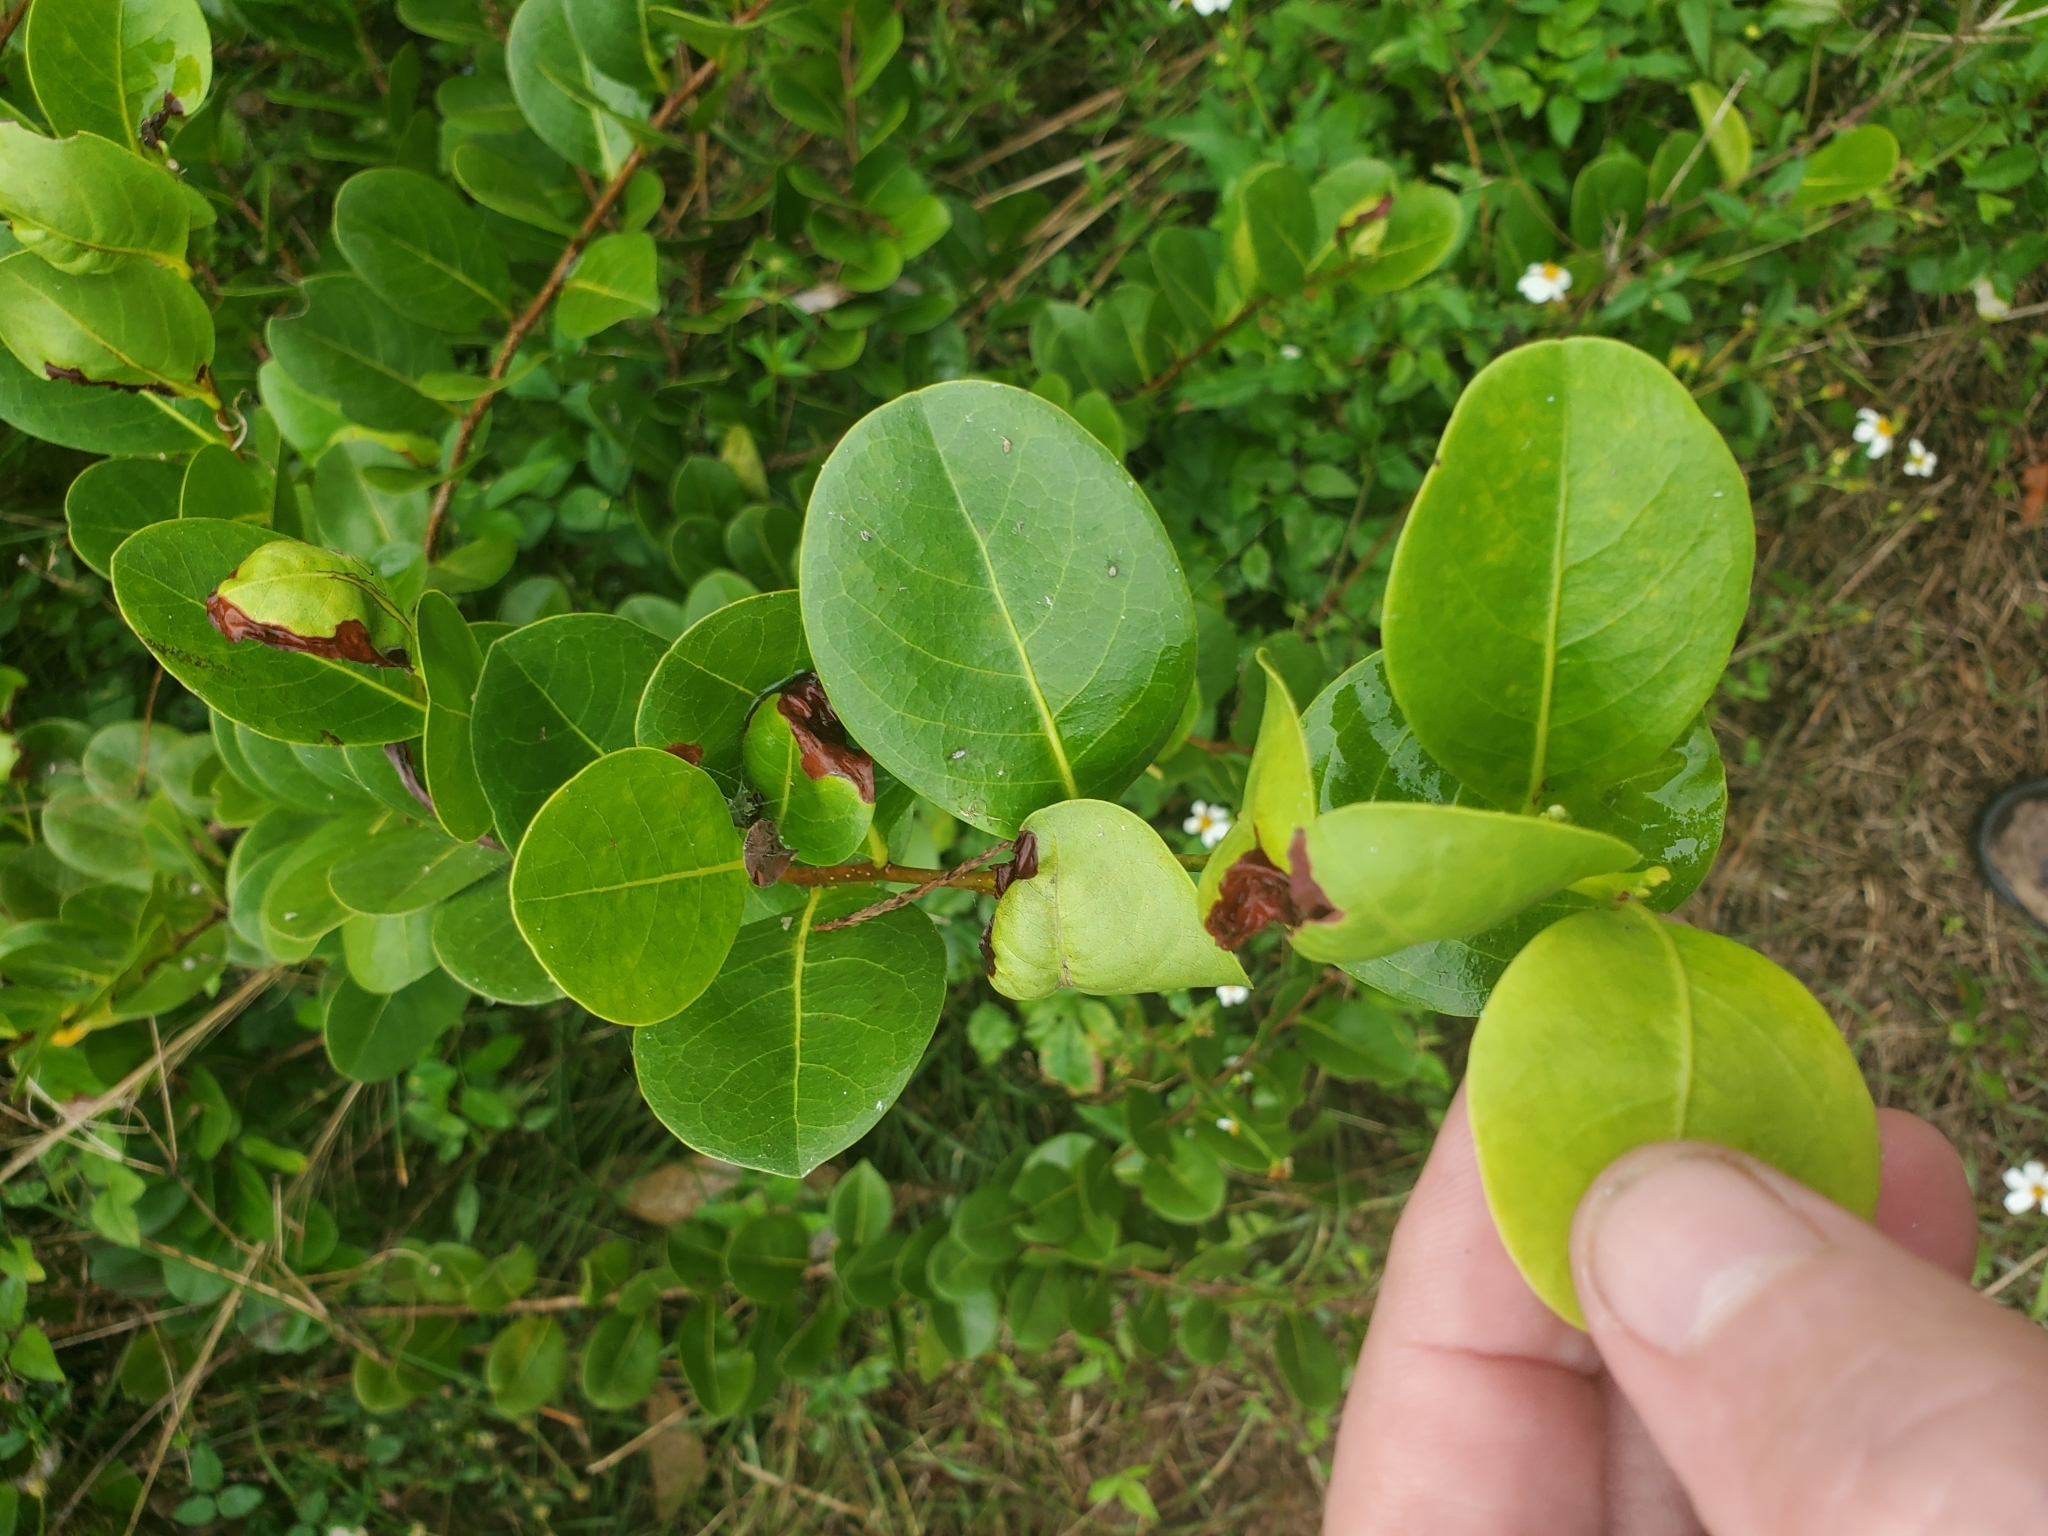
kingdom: Plantae
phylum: Tracheophyta
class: Magnoliopsida
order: Malpighiales
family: Chrysobalanaceae
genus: Chrysobalanus
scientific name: Chrysobalanus icaco
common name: Coco plum
